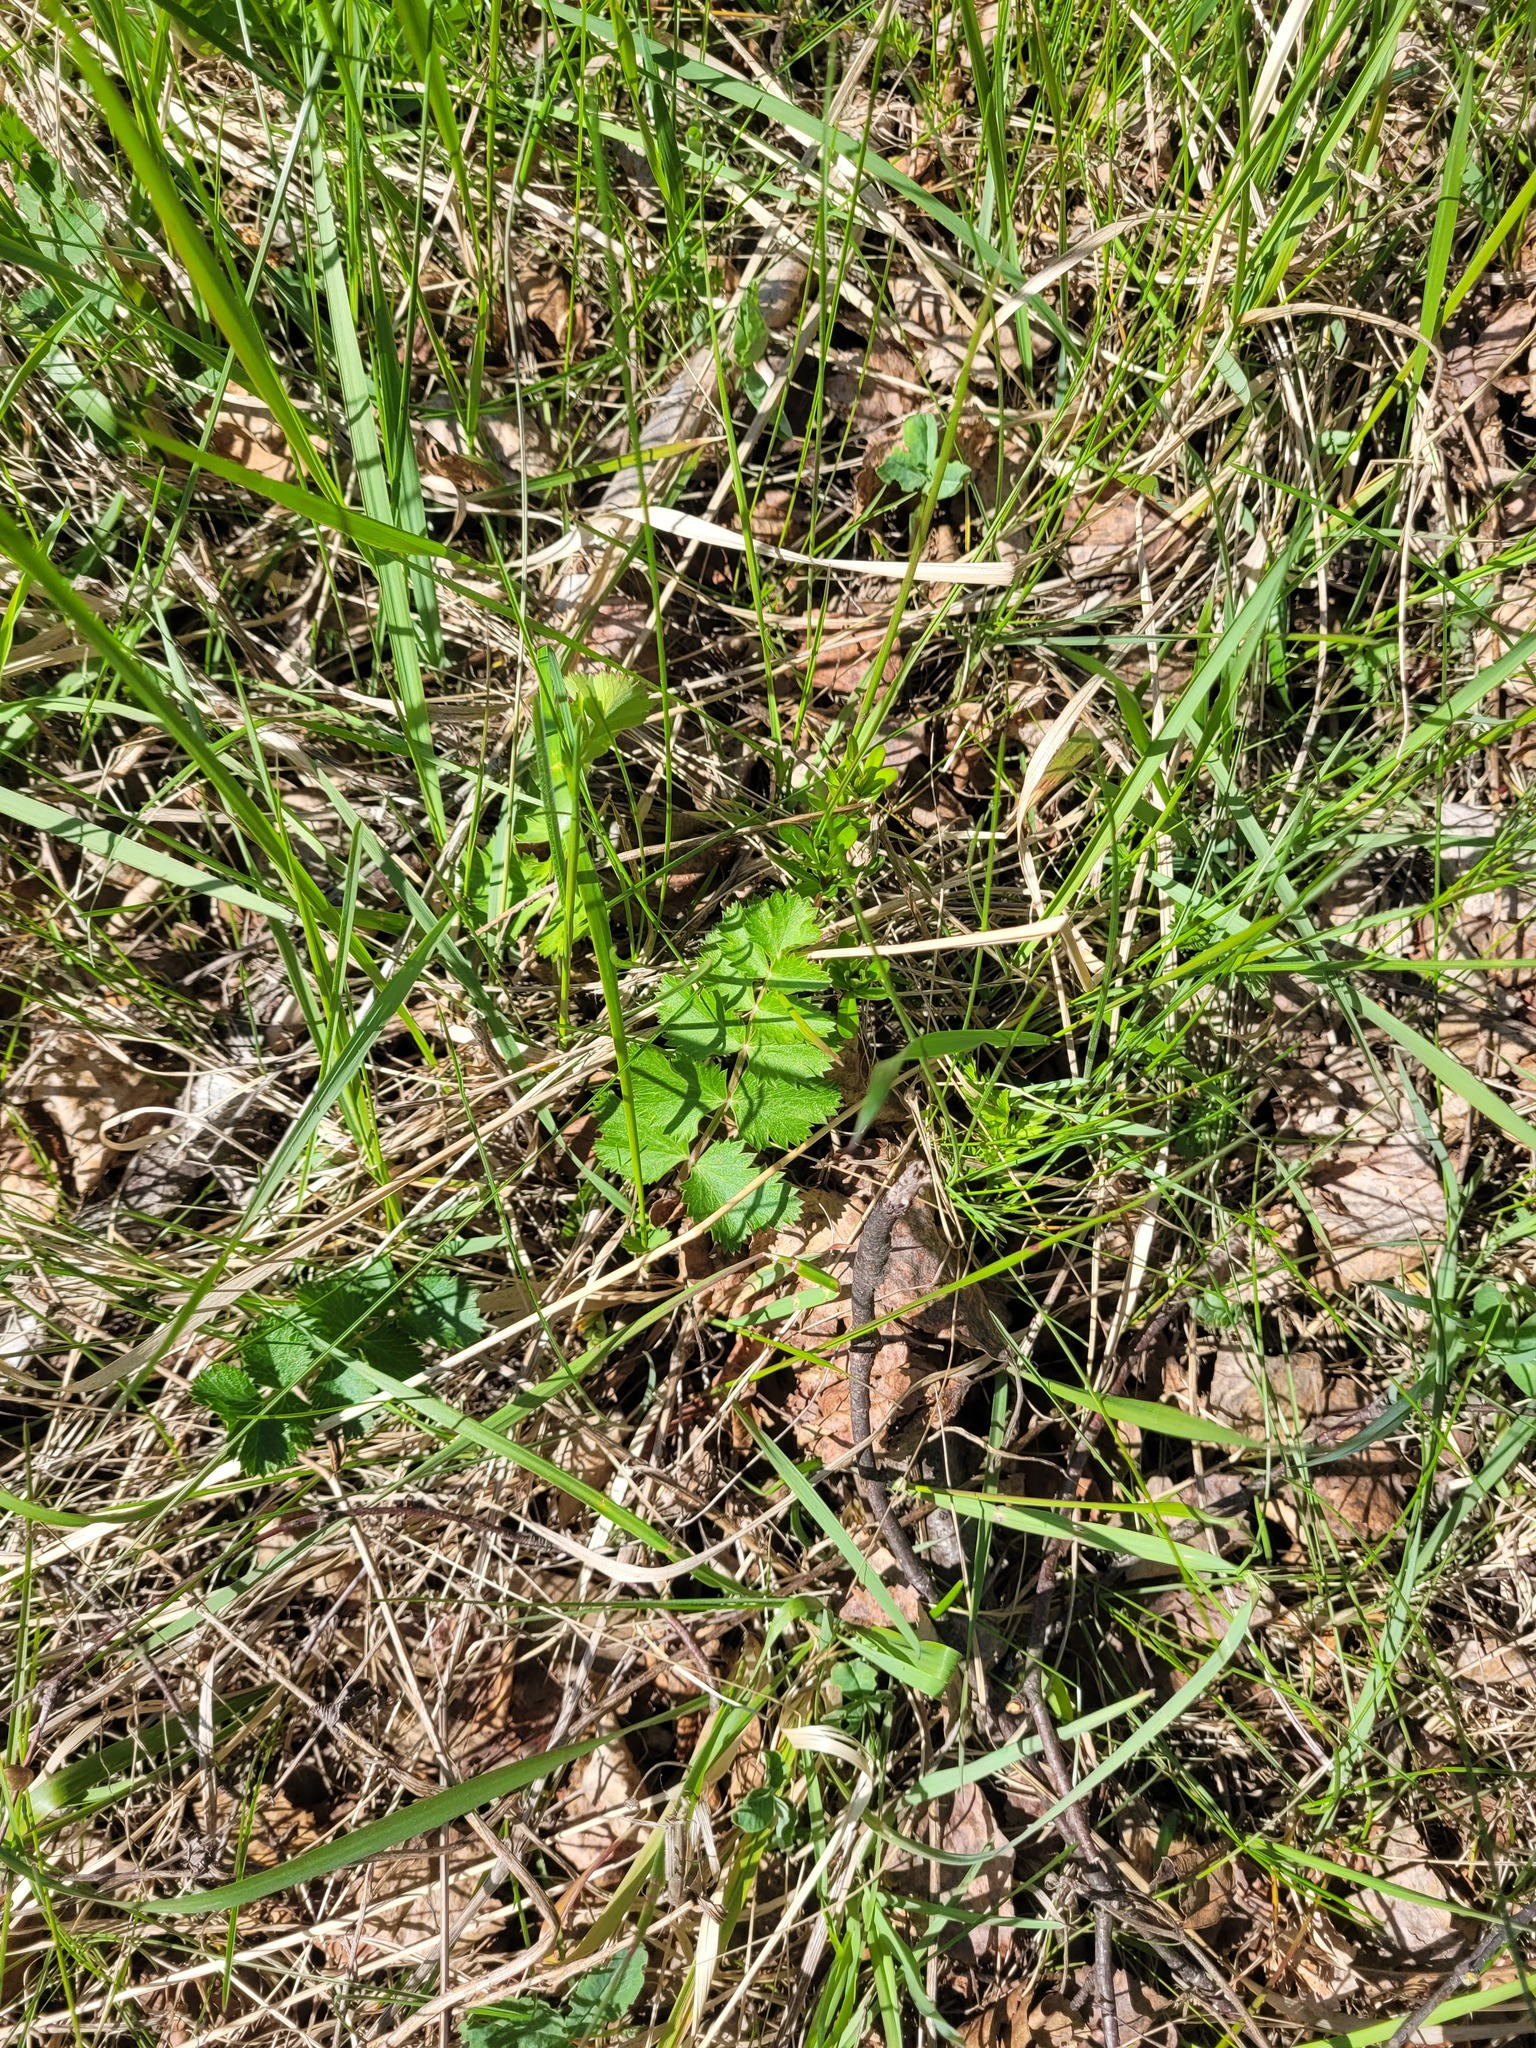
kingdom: Plantae
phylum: Tracheophyta
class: Magnoliopsida
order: Apiales
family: Apiaceae
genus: Pimpinella
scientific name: Pimpinella saxifraga
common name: Burnet-saxifrage
